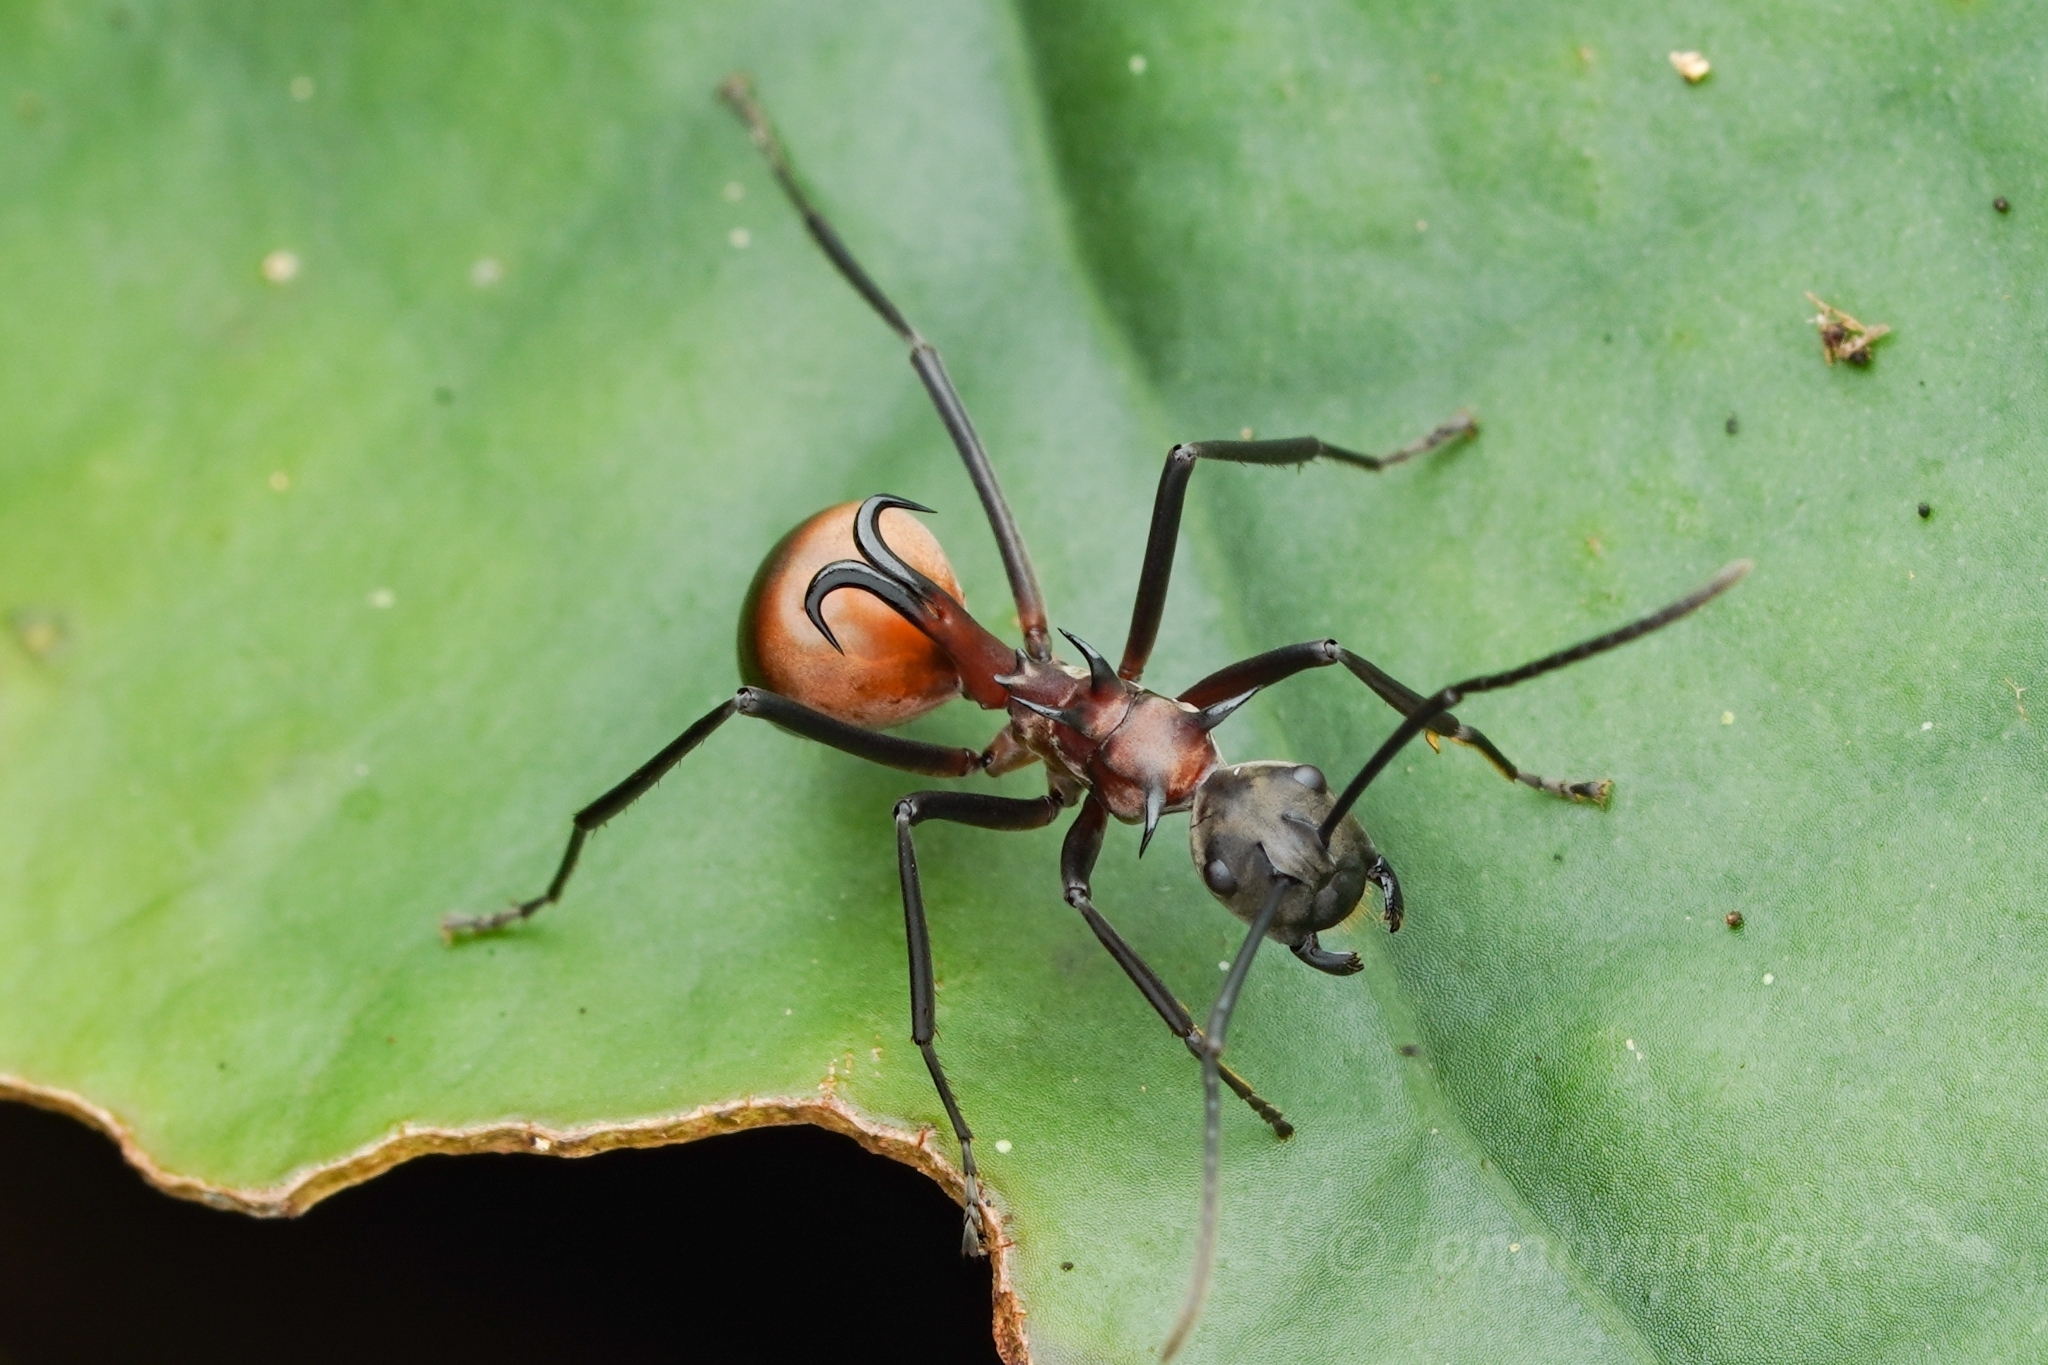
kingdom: Animalia
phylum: Arthropoda
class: Insecta
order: Hymenoptera
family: Formicidae
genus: Polyrhachis
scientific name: Polyrhachis olybria
